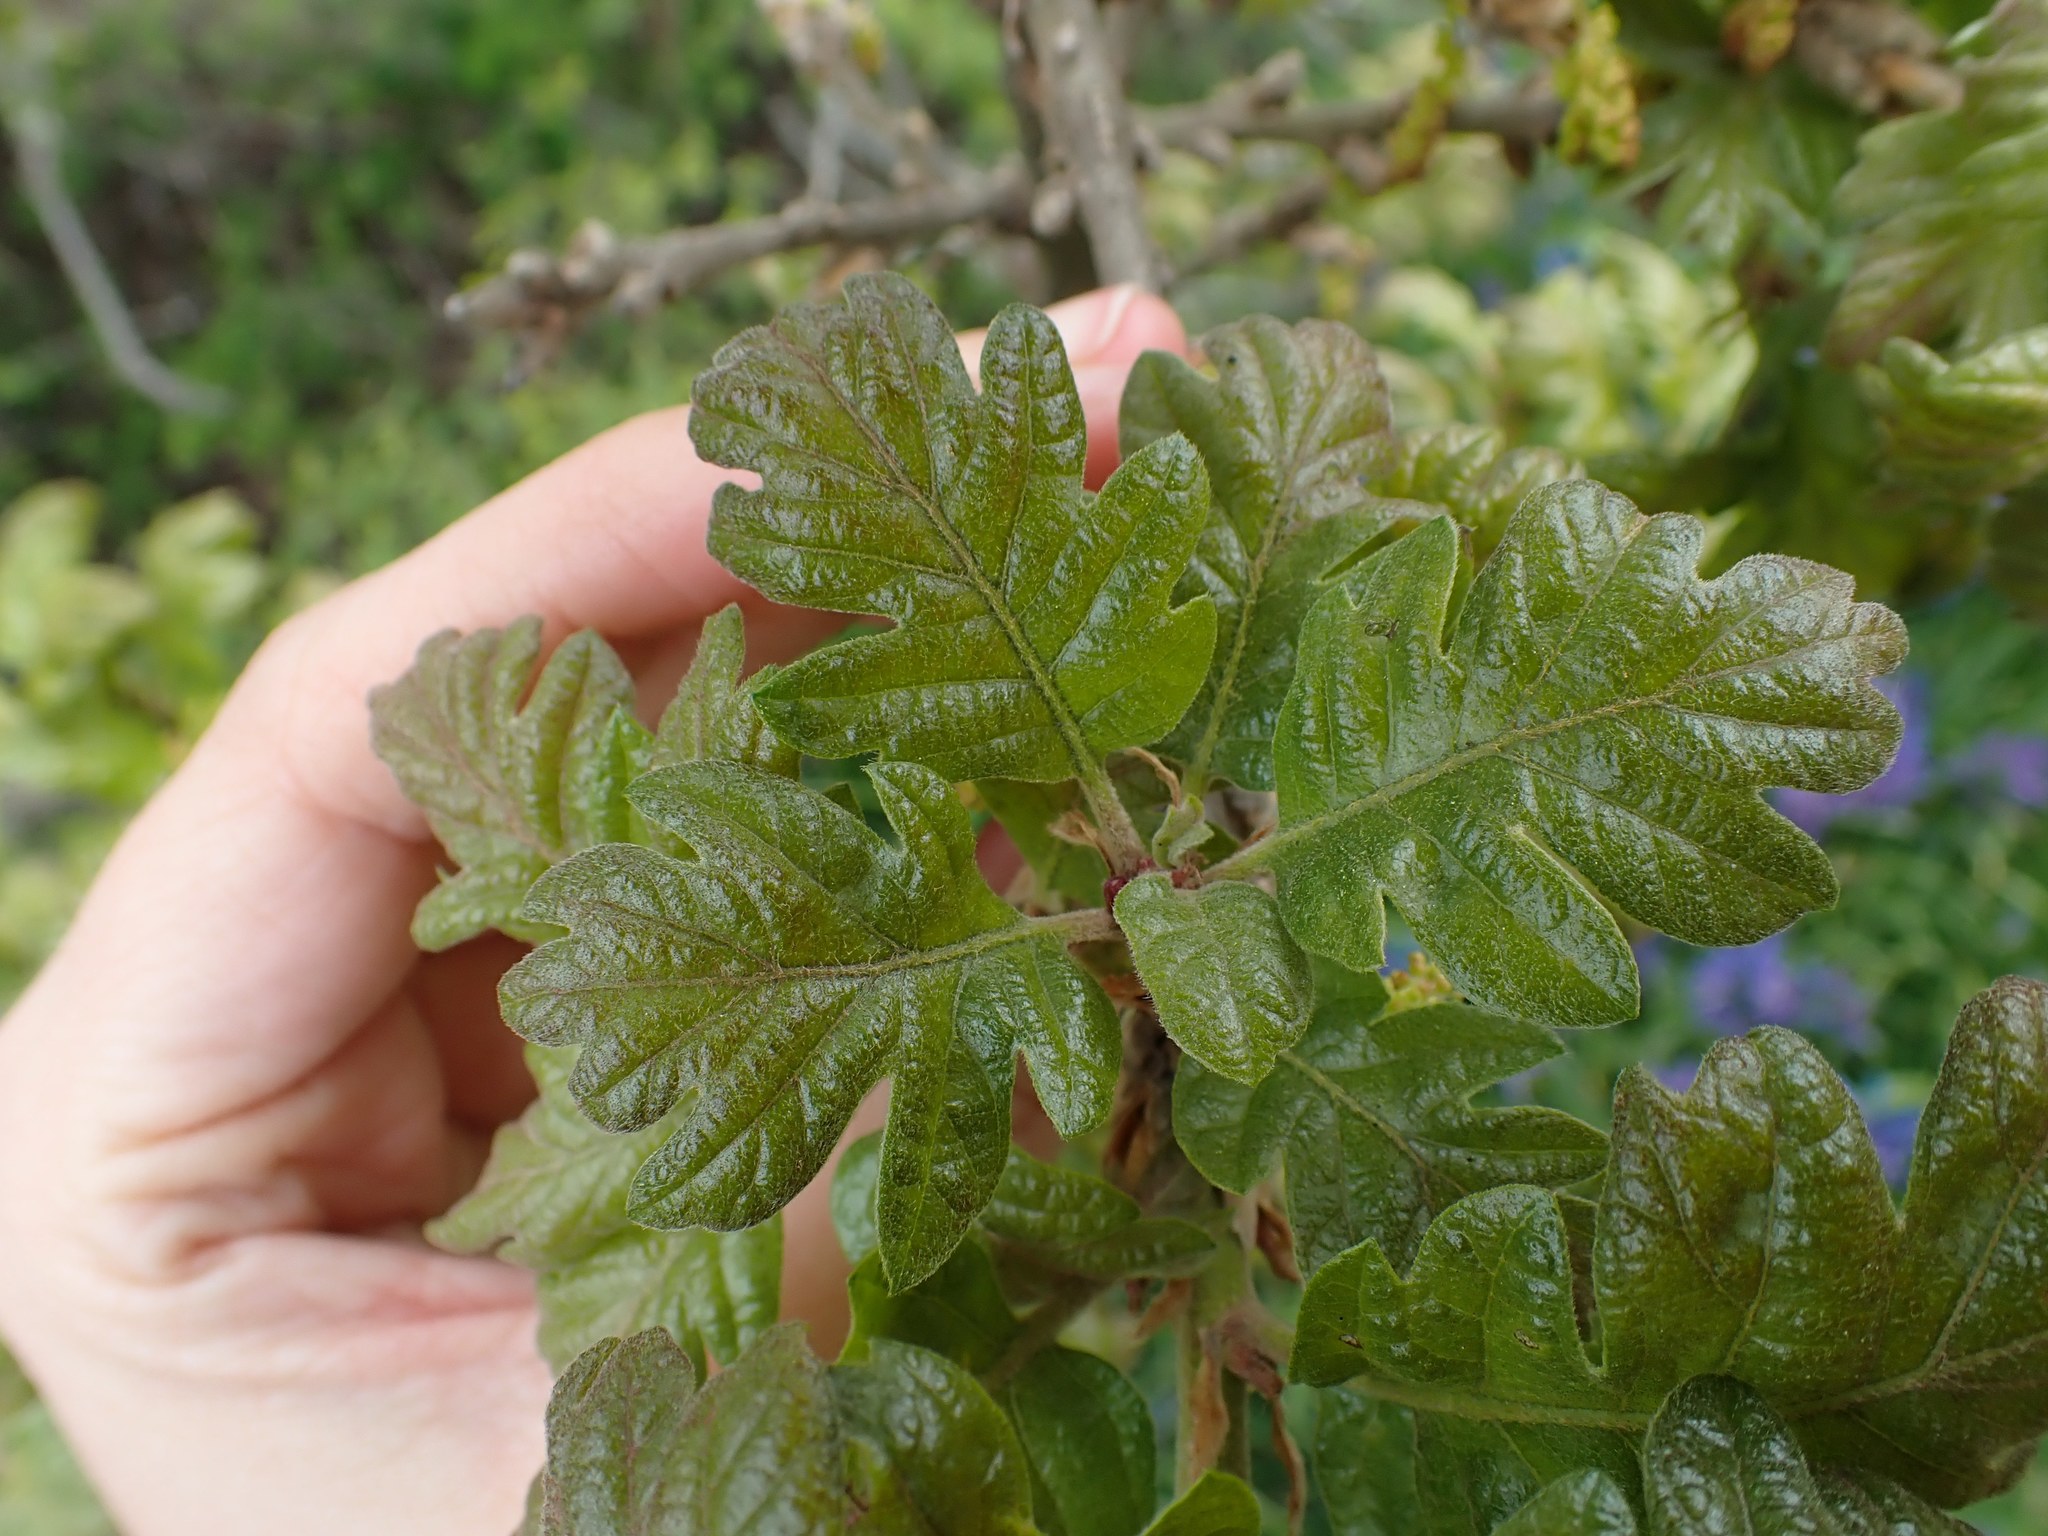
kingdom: Plantae
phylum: Tracheophyta
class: Magnoliopsida
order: Fagales
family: Fagaceae
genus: Quercus
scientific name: Quercus garryana
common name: Garry oak
